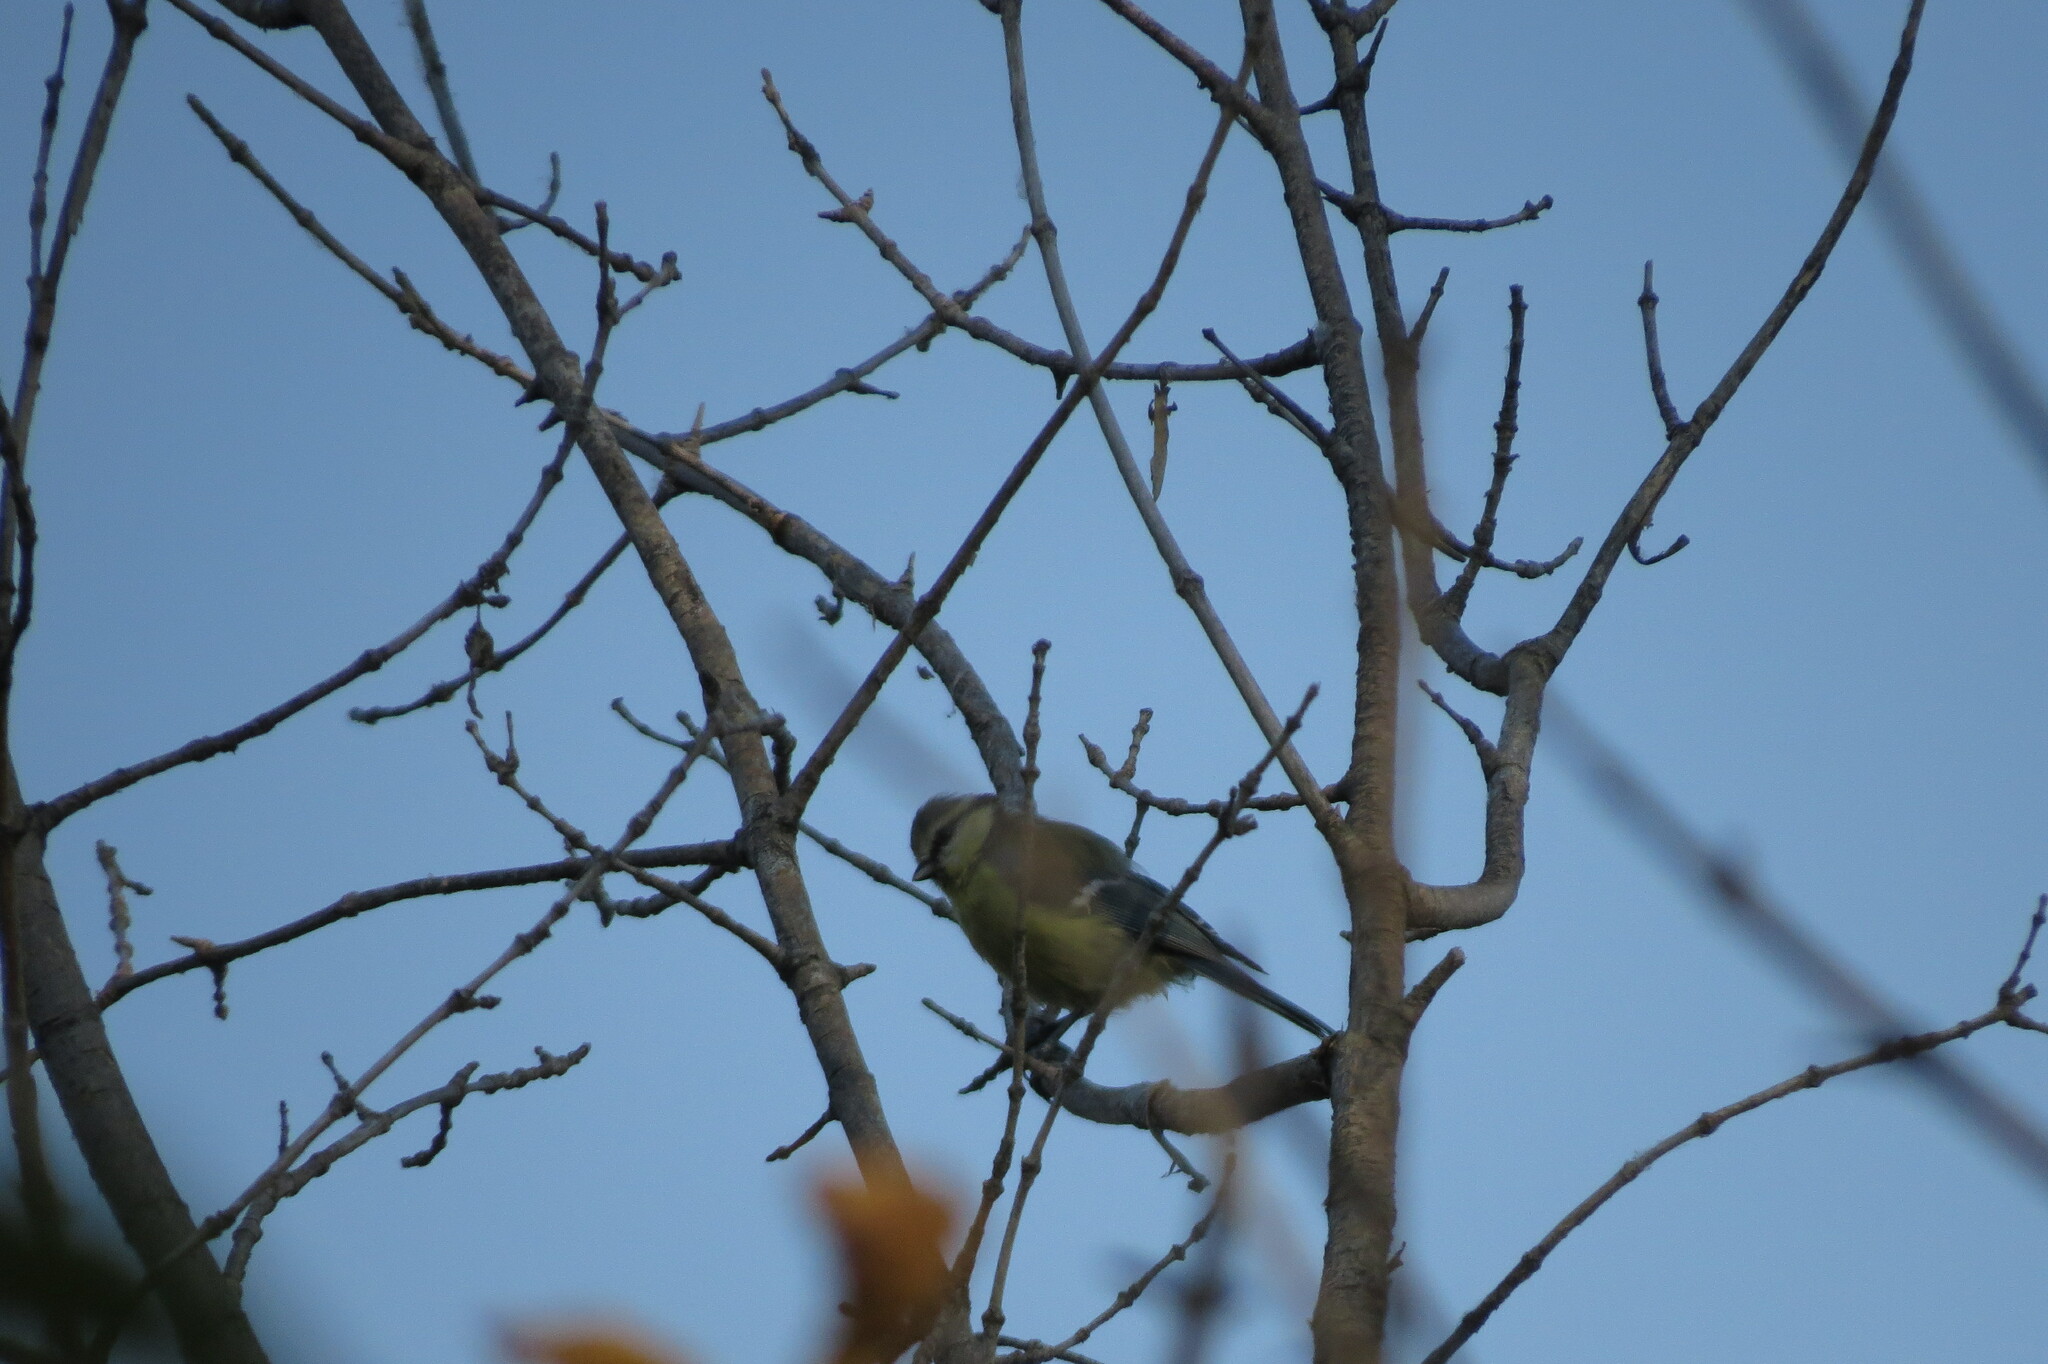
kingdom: Animalia
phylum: Chordata
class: Aves
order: Passeriformes
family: Paridae
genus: Cyanistes
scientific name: Cyanistes caeruleus
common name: Eurasian blue tit
